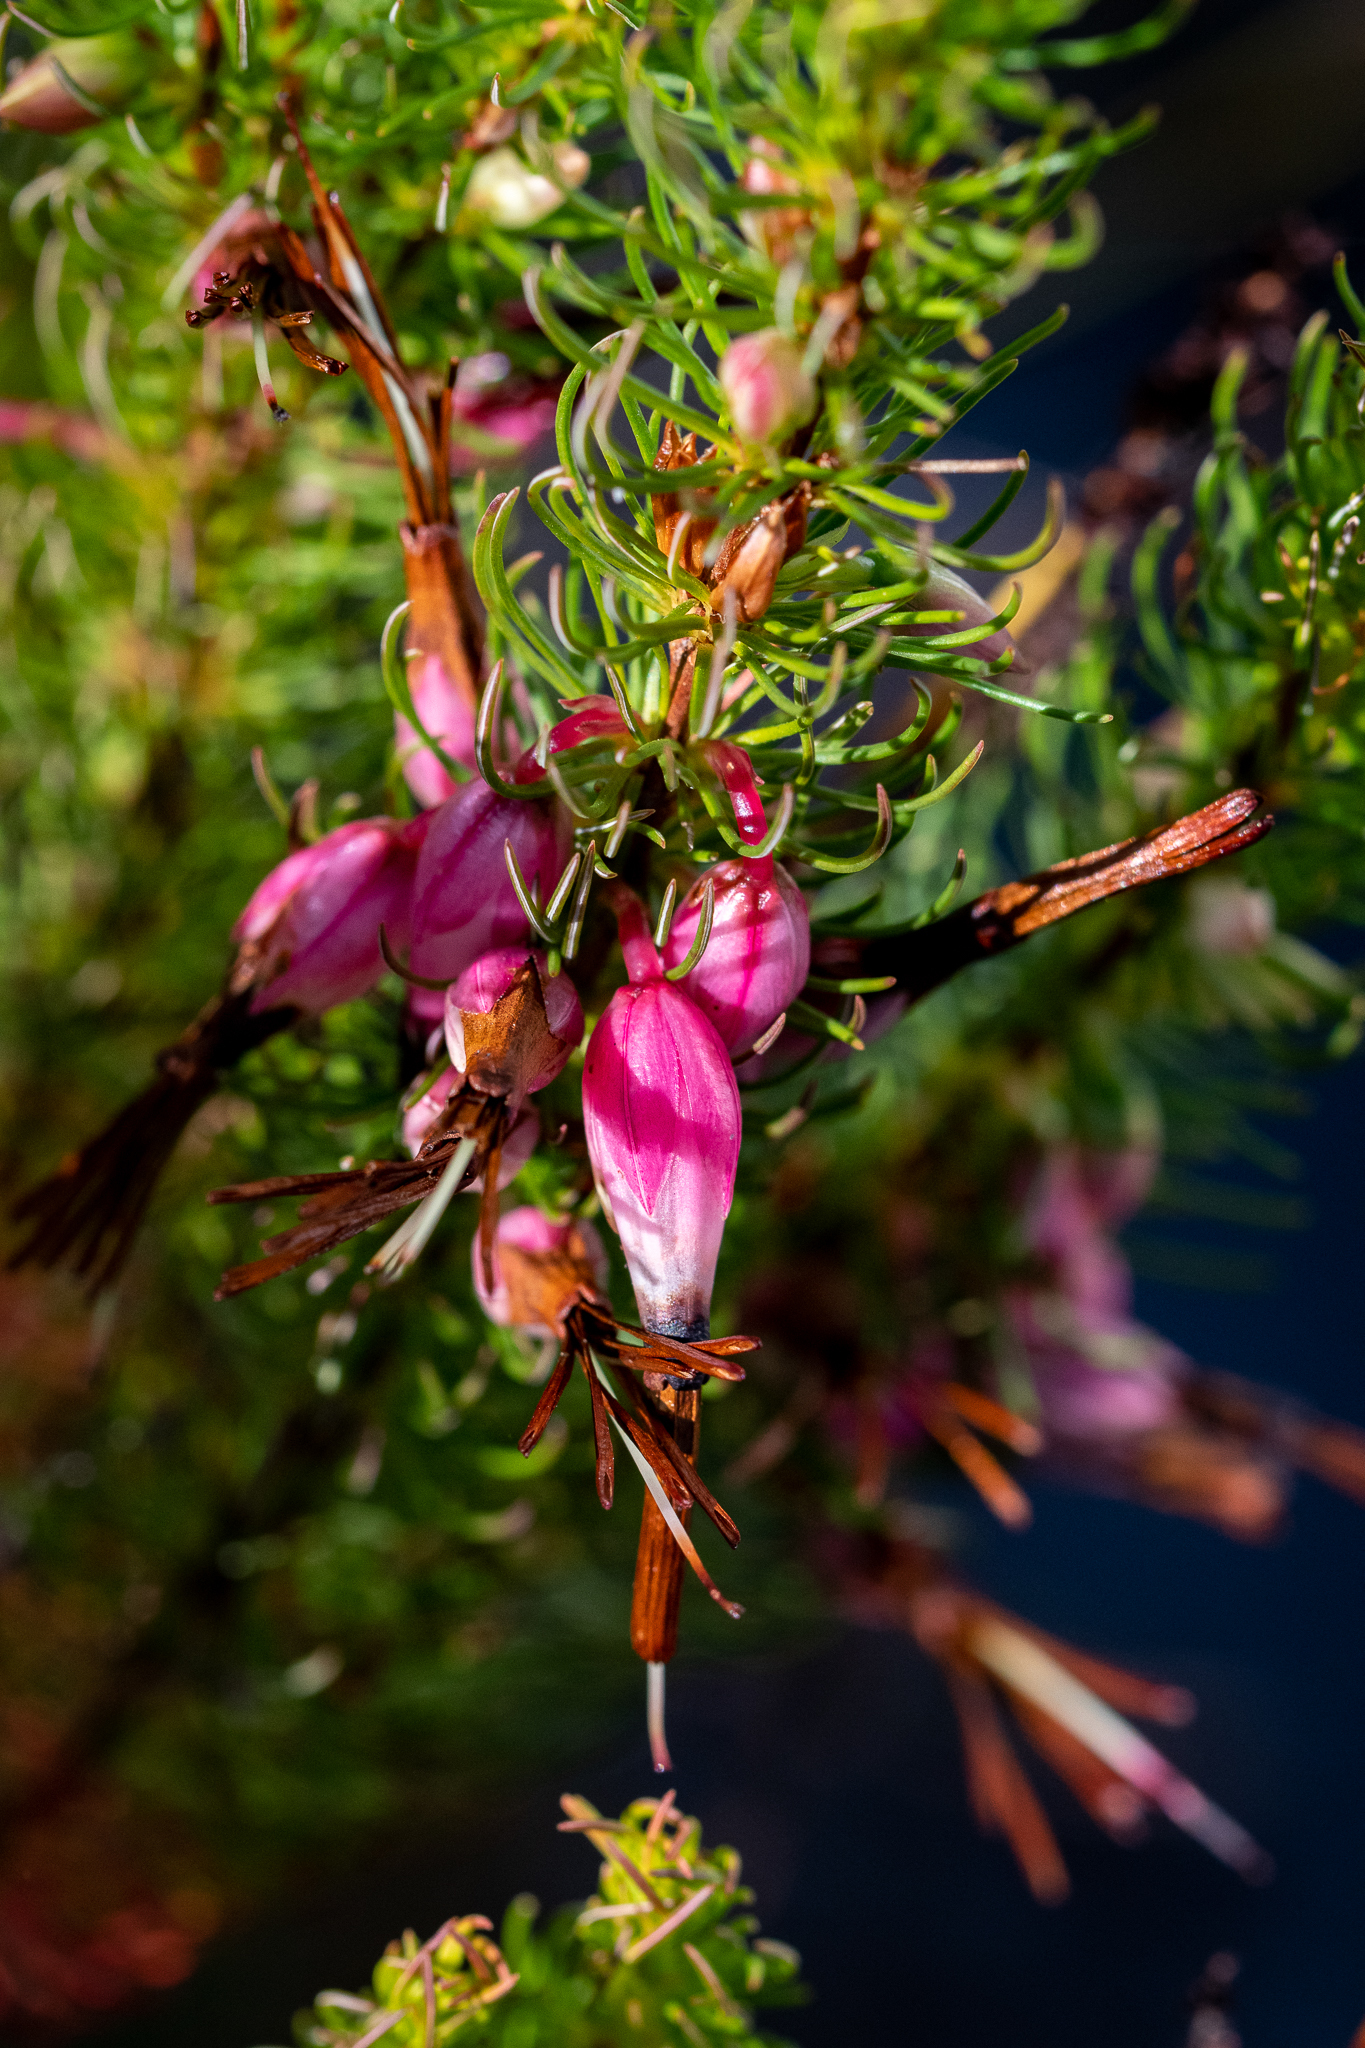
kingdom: Plantae
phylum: Tracheophyta
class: Magnoliopsida
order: Ericales
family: Ericaceae
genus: Erica
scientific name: Erica plukenetii
